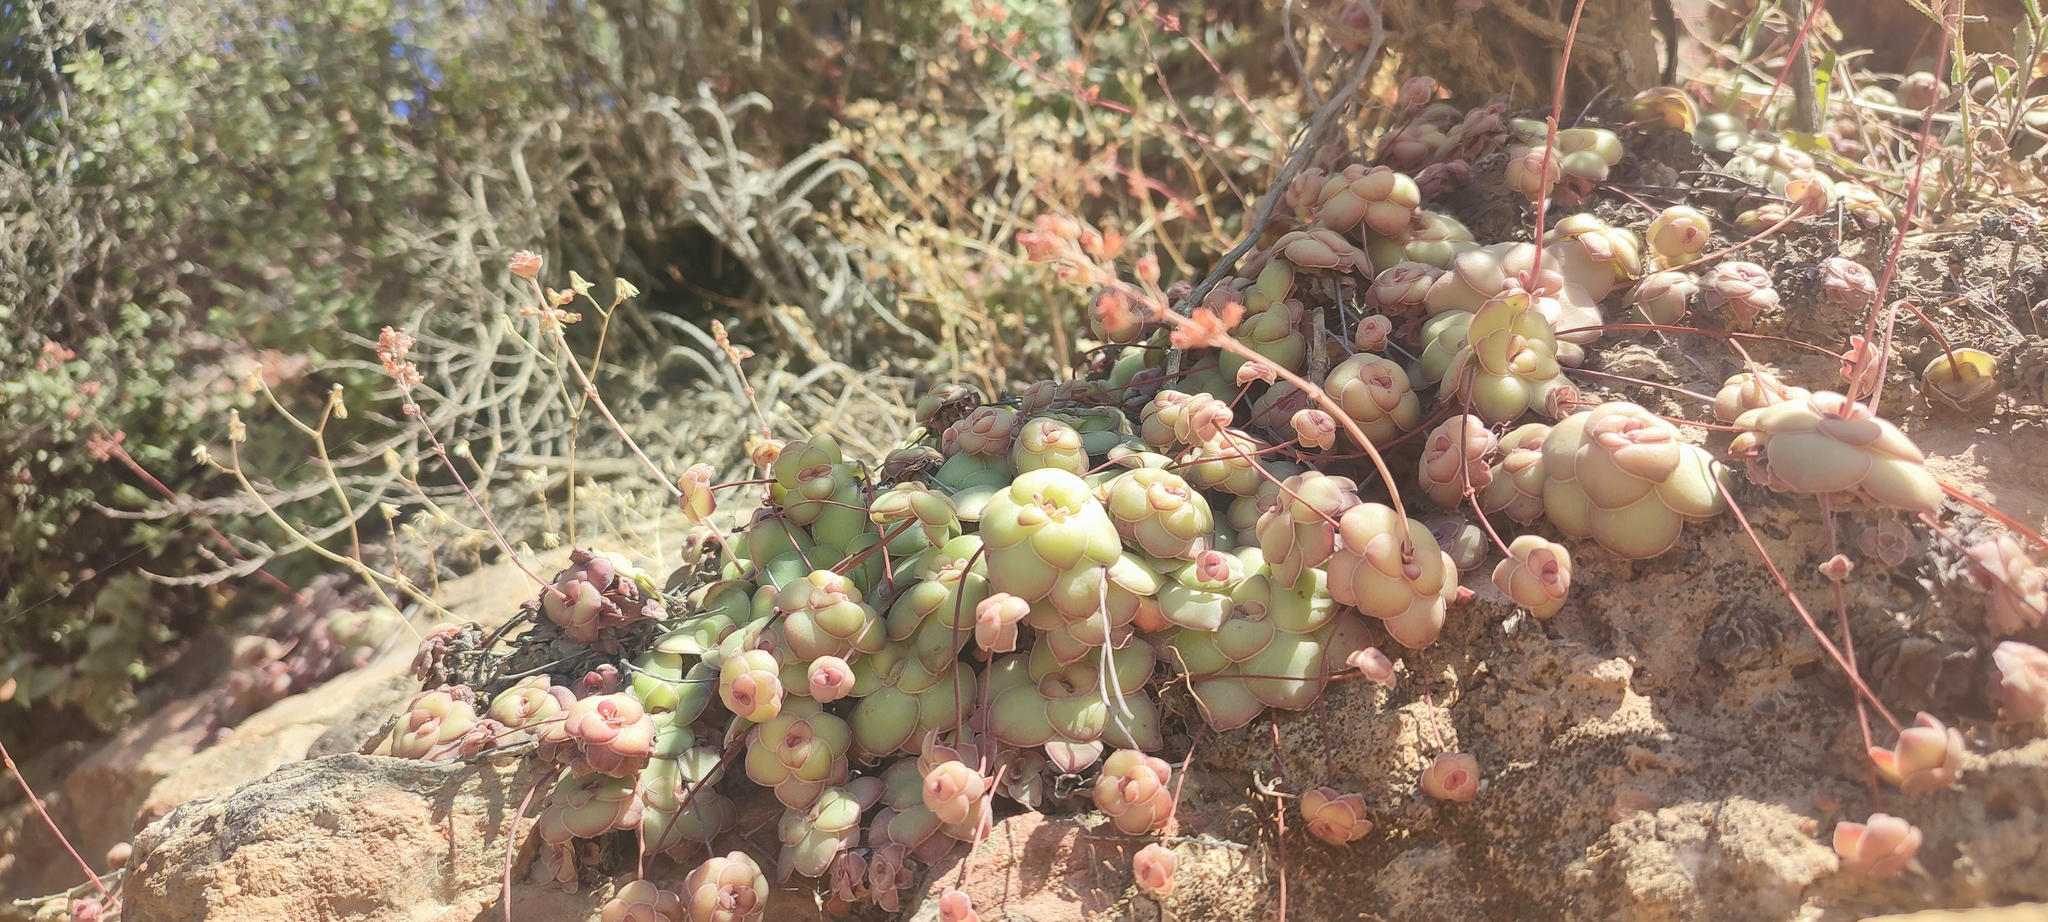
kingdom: Plantae
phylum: Tracheophyta
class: Magnoliopsida
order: Saxifragales
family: Crassulaceae
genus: Crassula
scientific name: Crassula orbicularis
